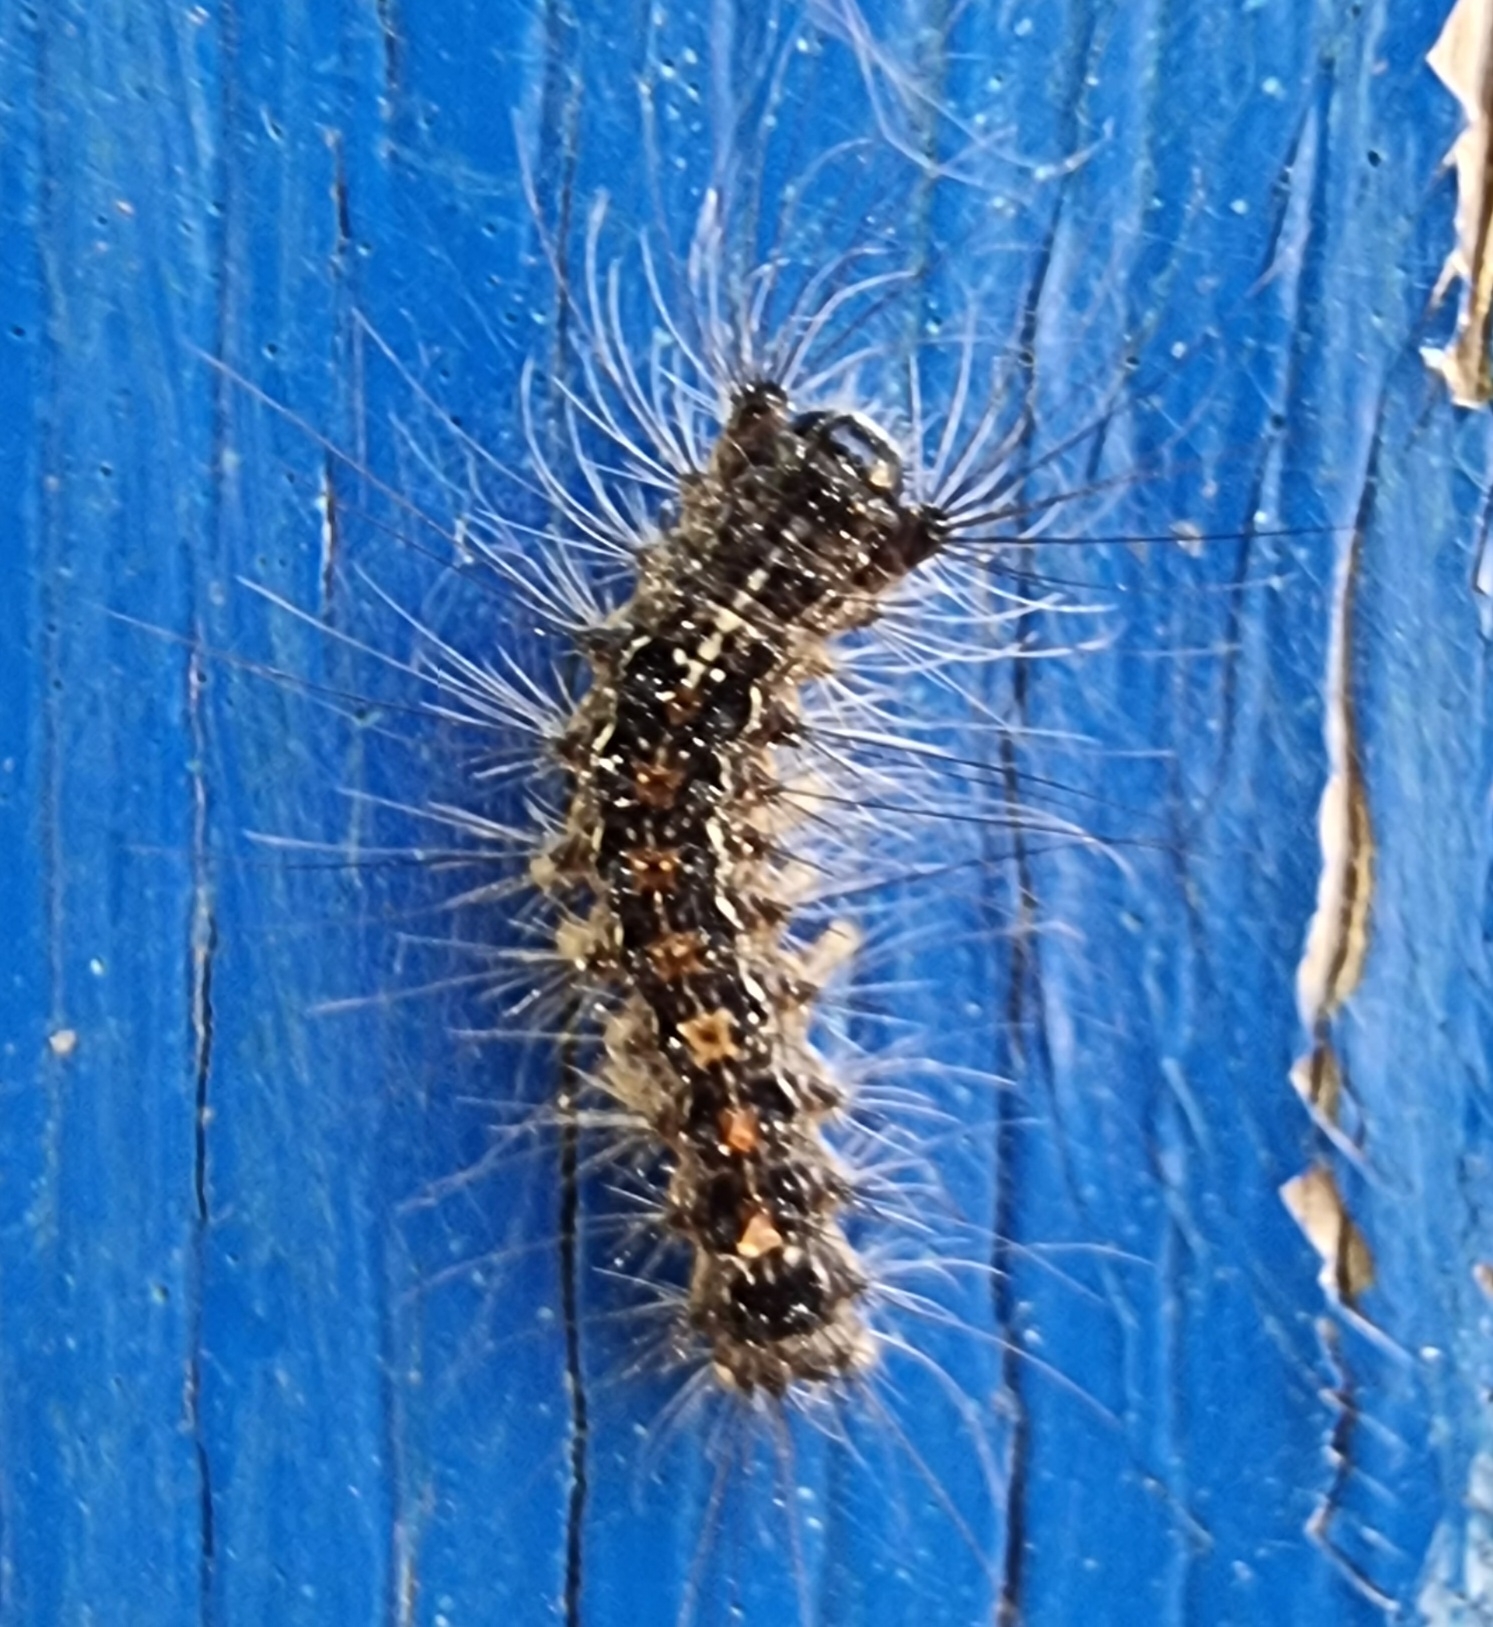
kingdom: Animalia
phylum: Arthropoda
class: Insecta
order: Lepidoptera
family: Erebidae
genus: Lymantria
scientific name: Lymantria dispar
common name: Gypsy moth
